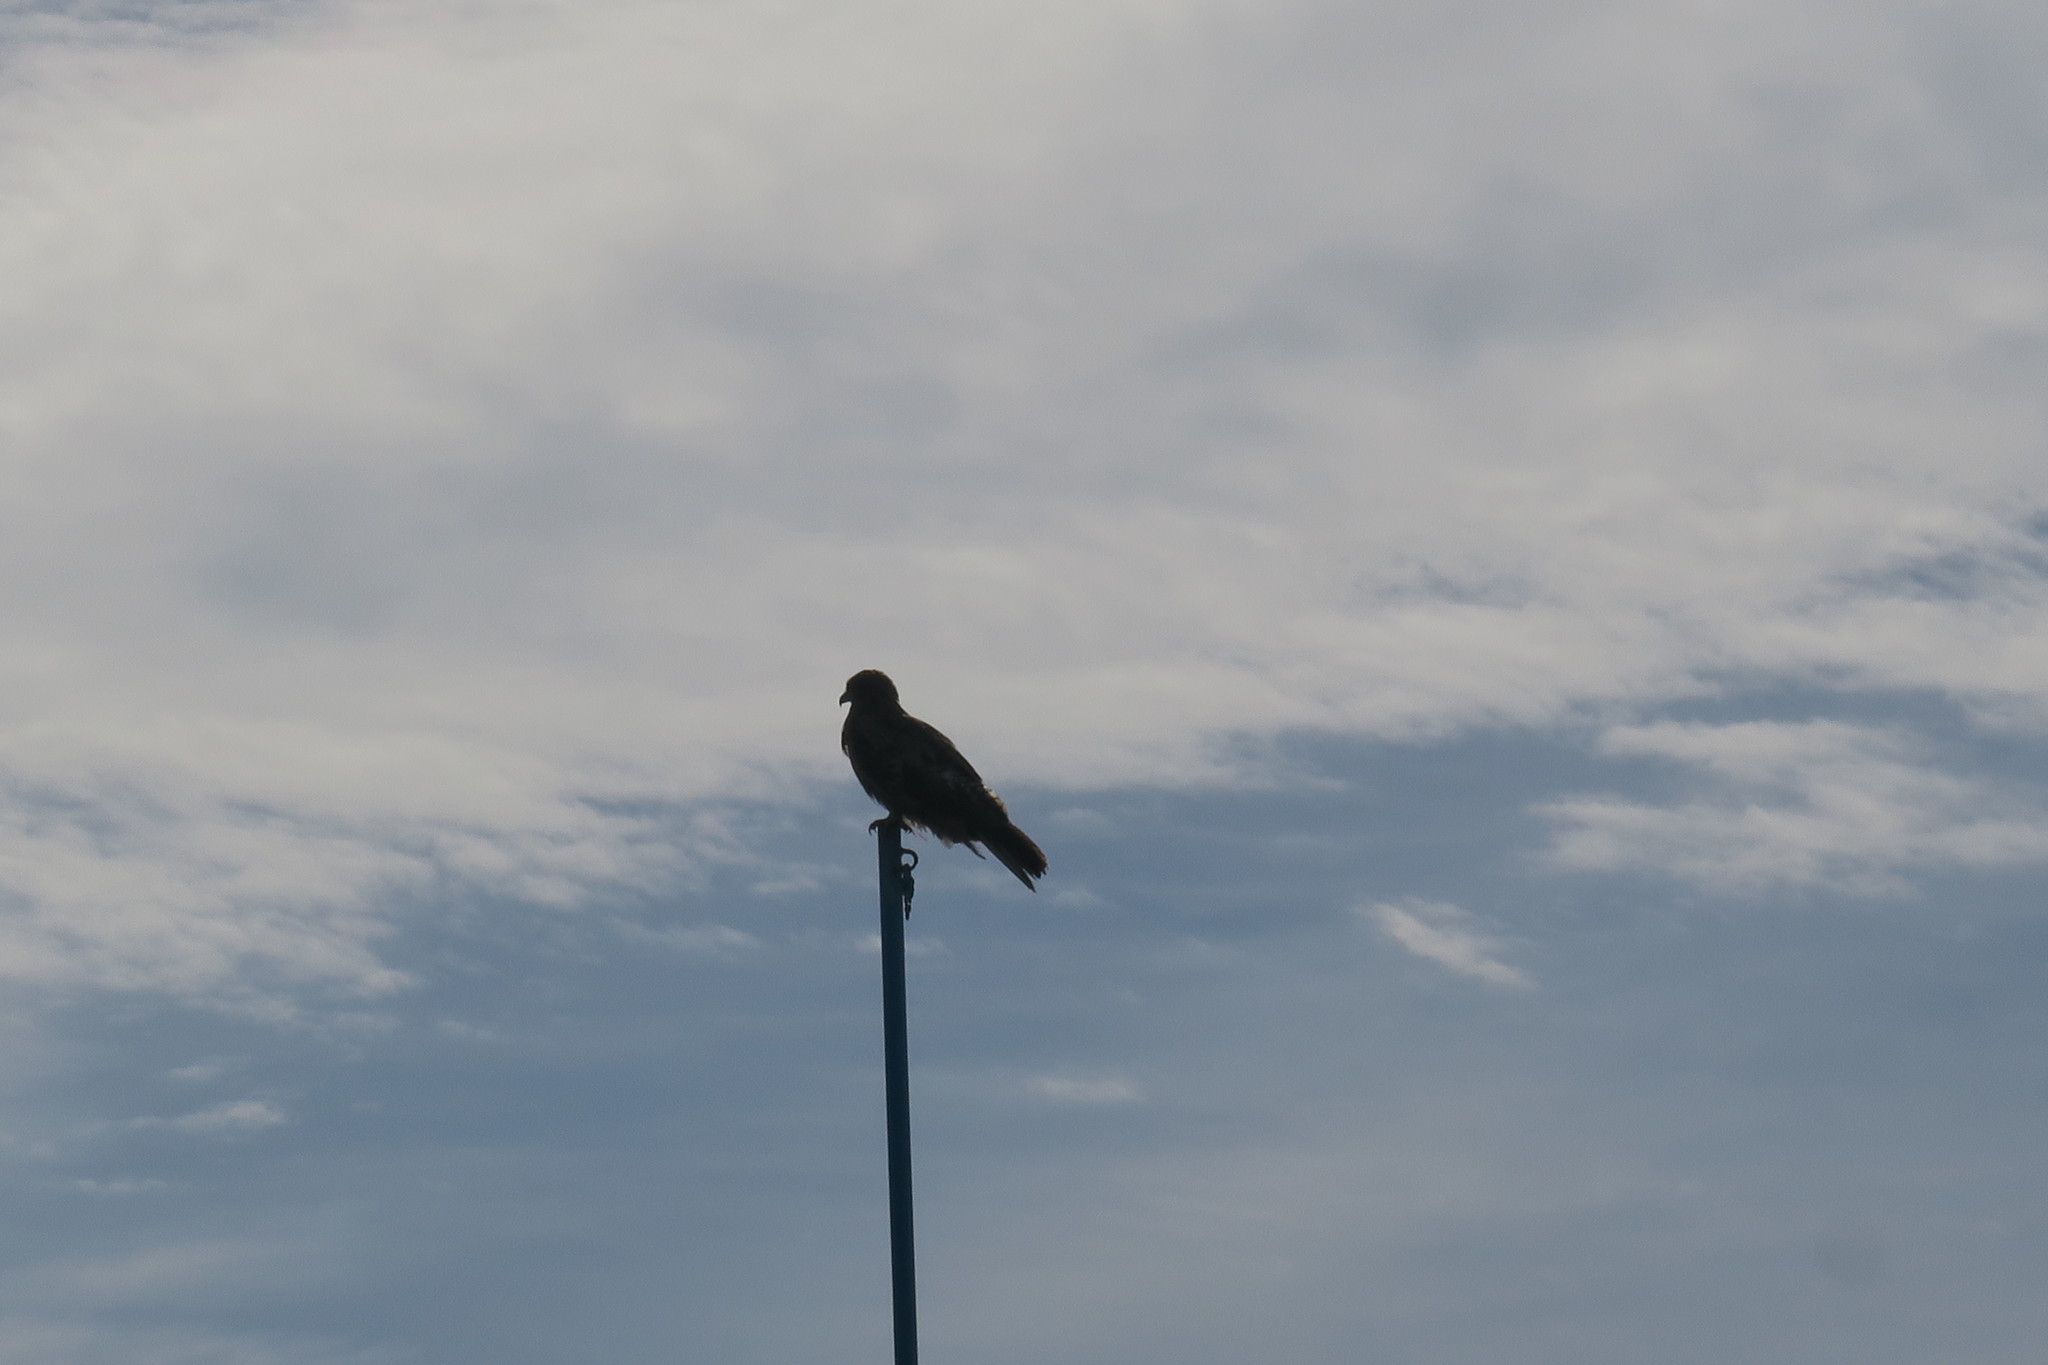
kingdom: Animalia
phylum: Chordata
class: Aves
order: Accipitriformes
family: Accipitridae
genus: Milvus
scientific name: Milvus migrans
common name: Black kite
